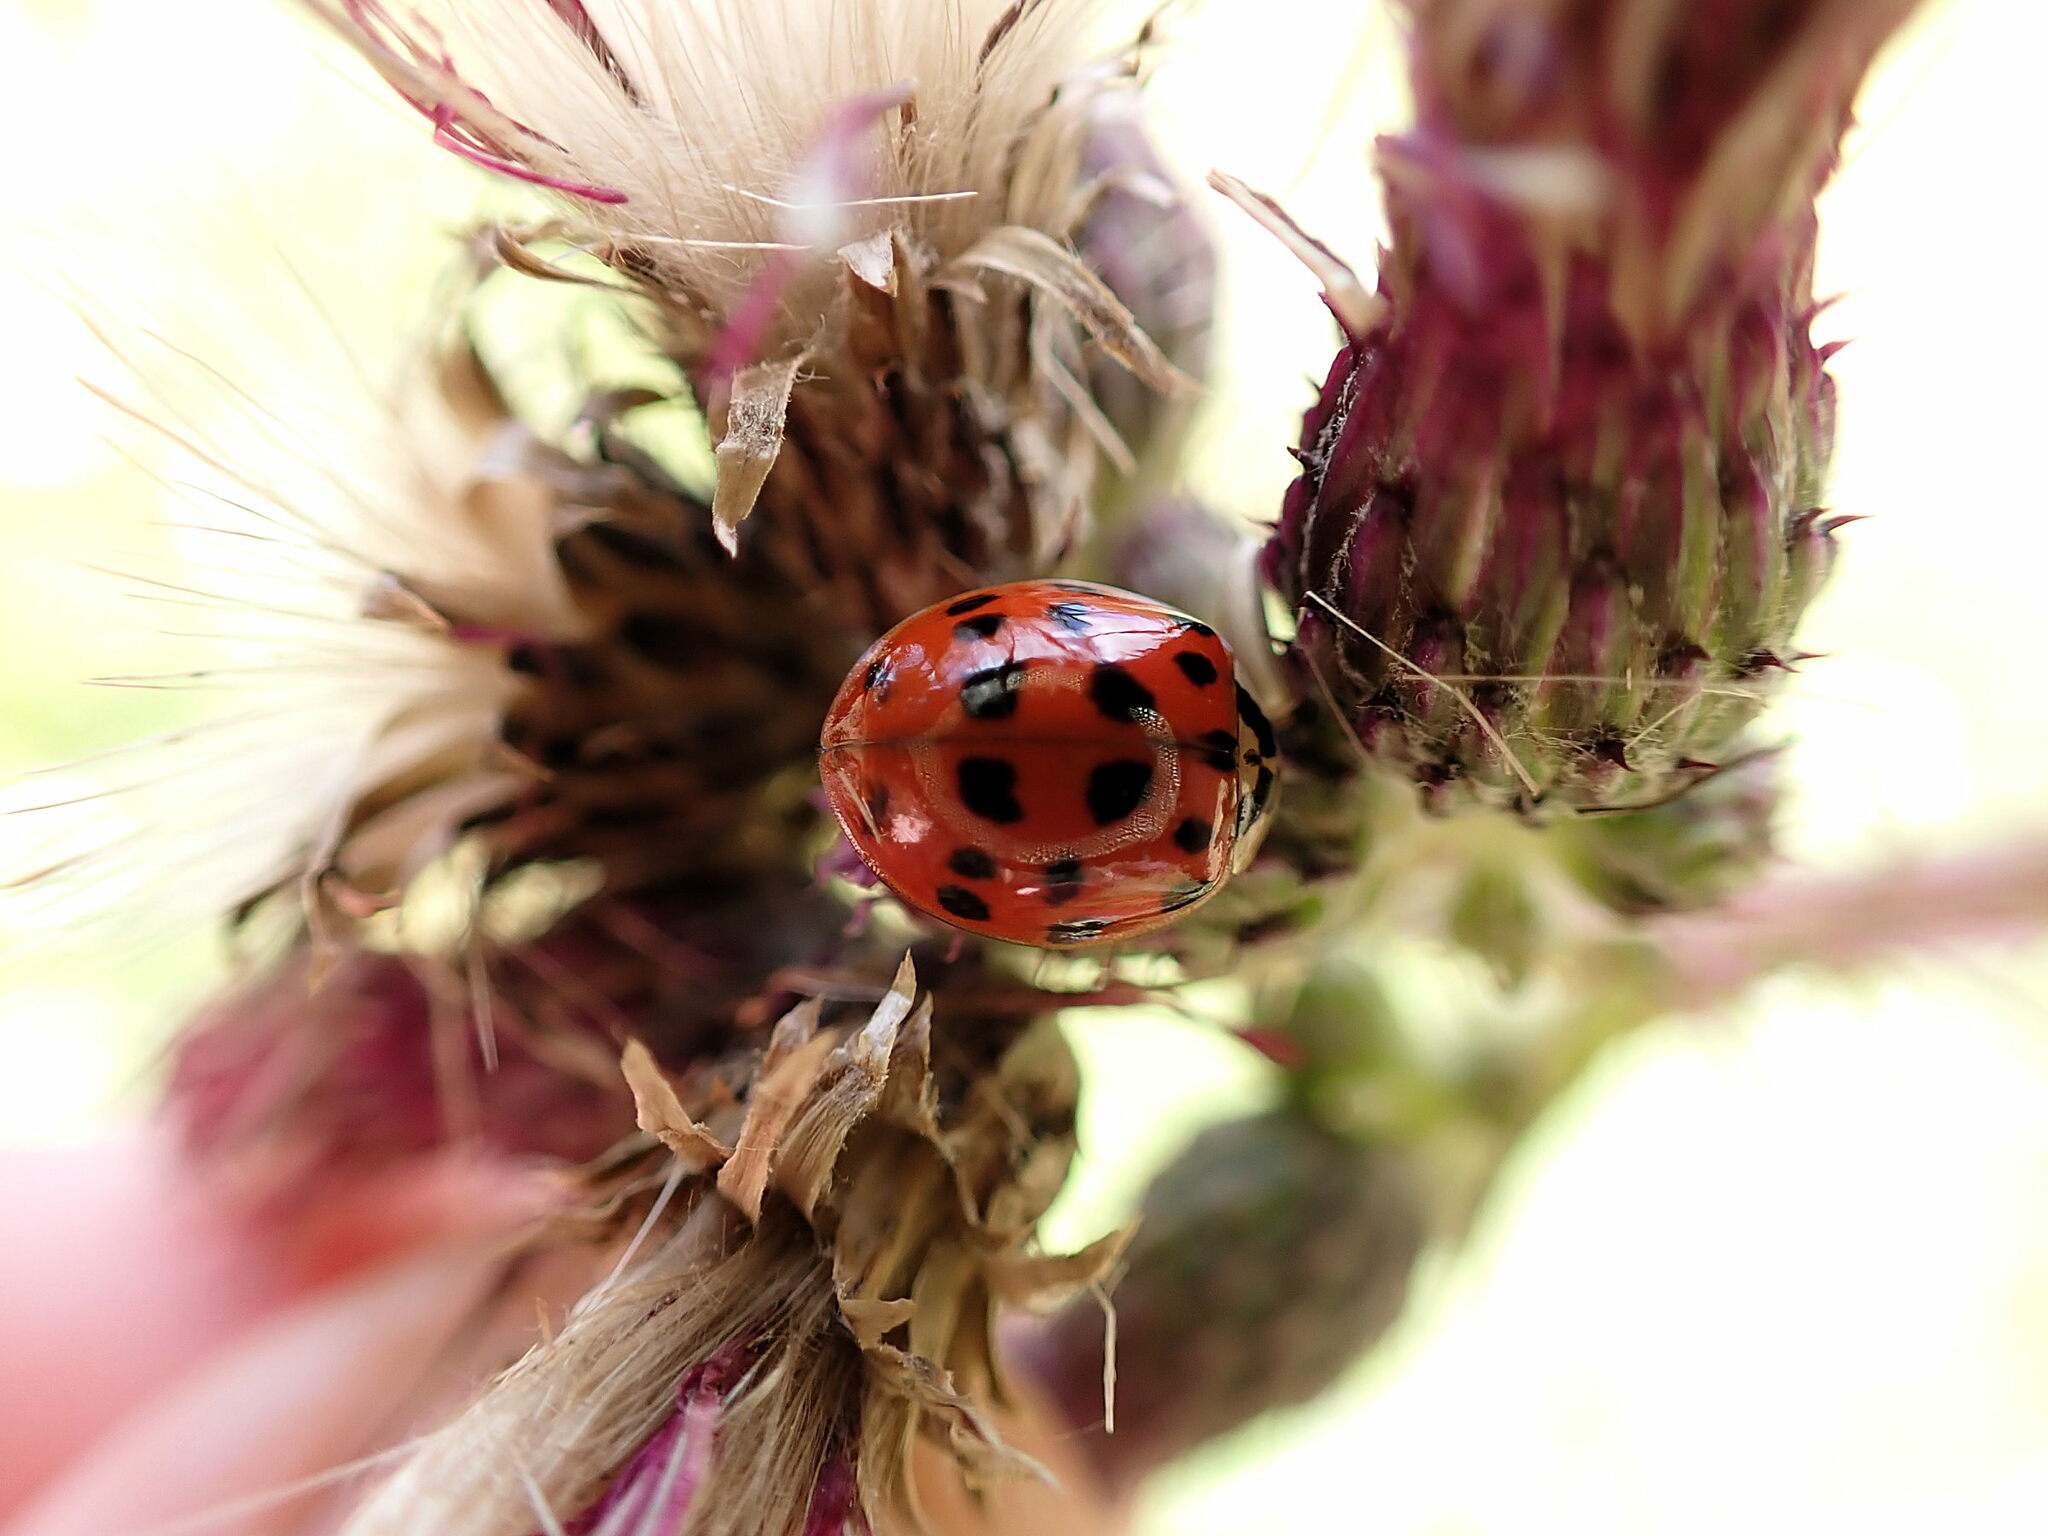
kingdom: Animalia
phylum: Arthropoda
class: Insecta
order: Coleoptera
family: Coccinellidae
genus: Harmonia
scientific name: Harmonia axyridis
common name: Harlequin ladybird
